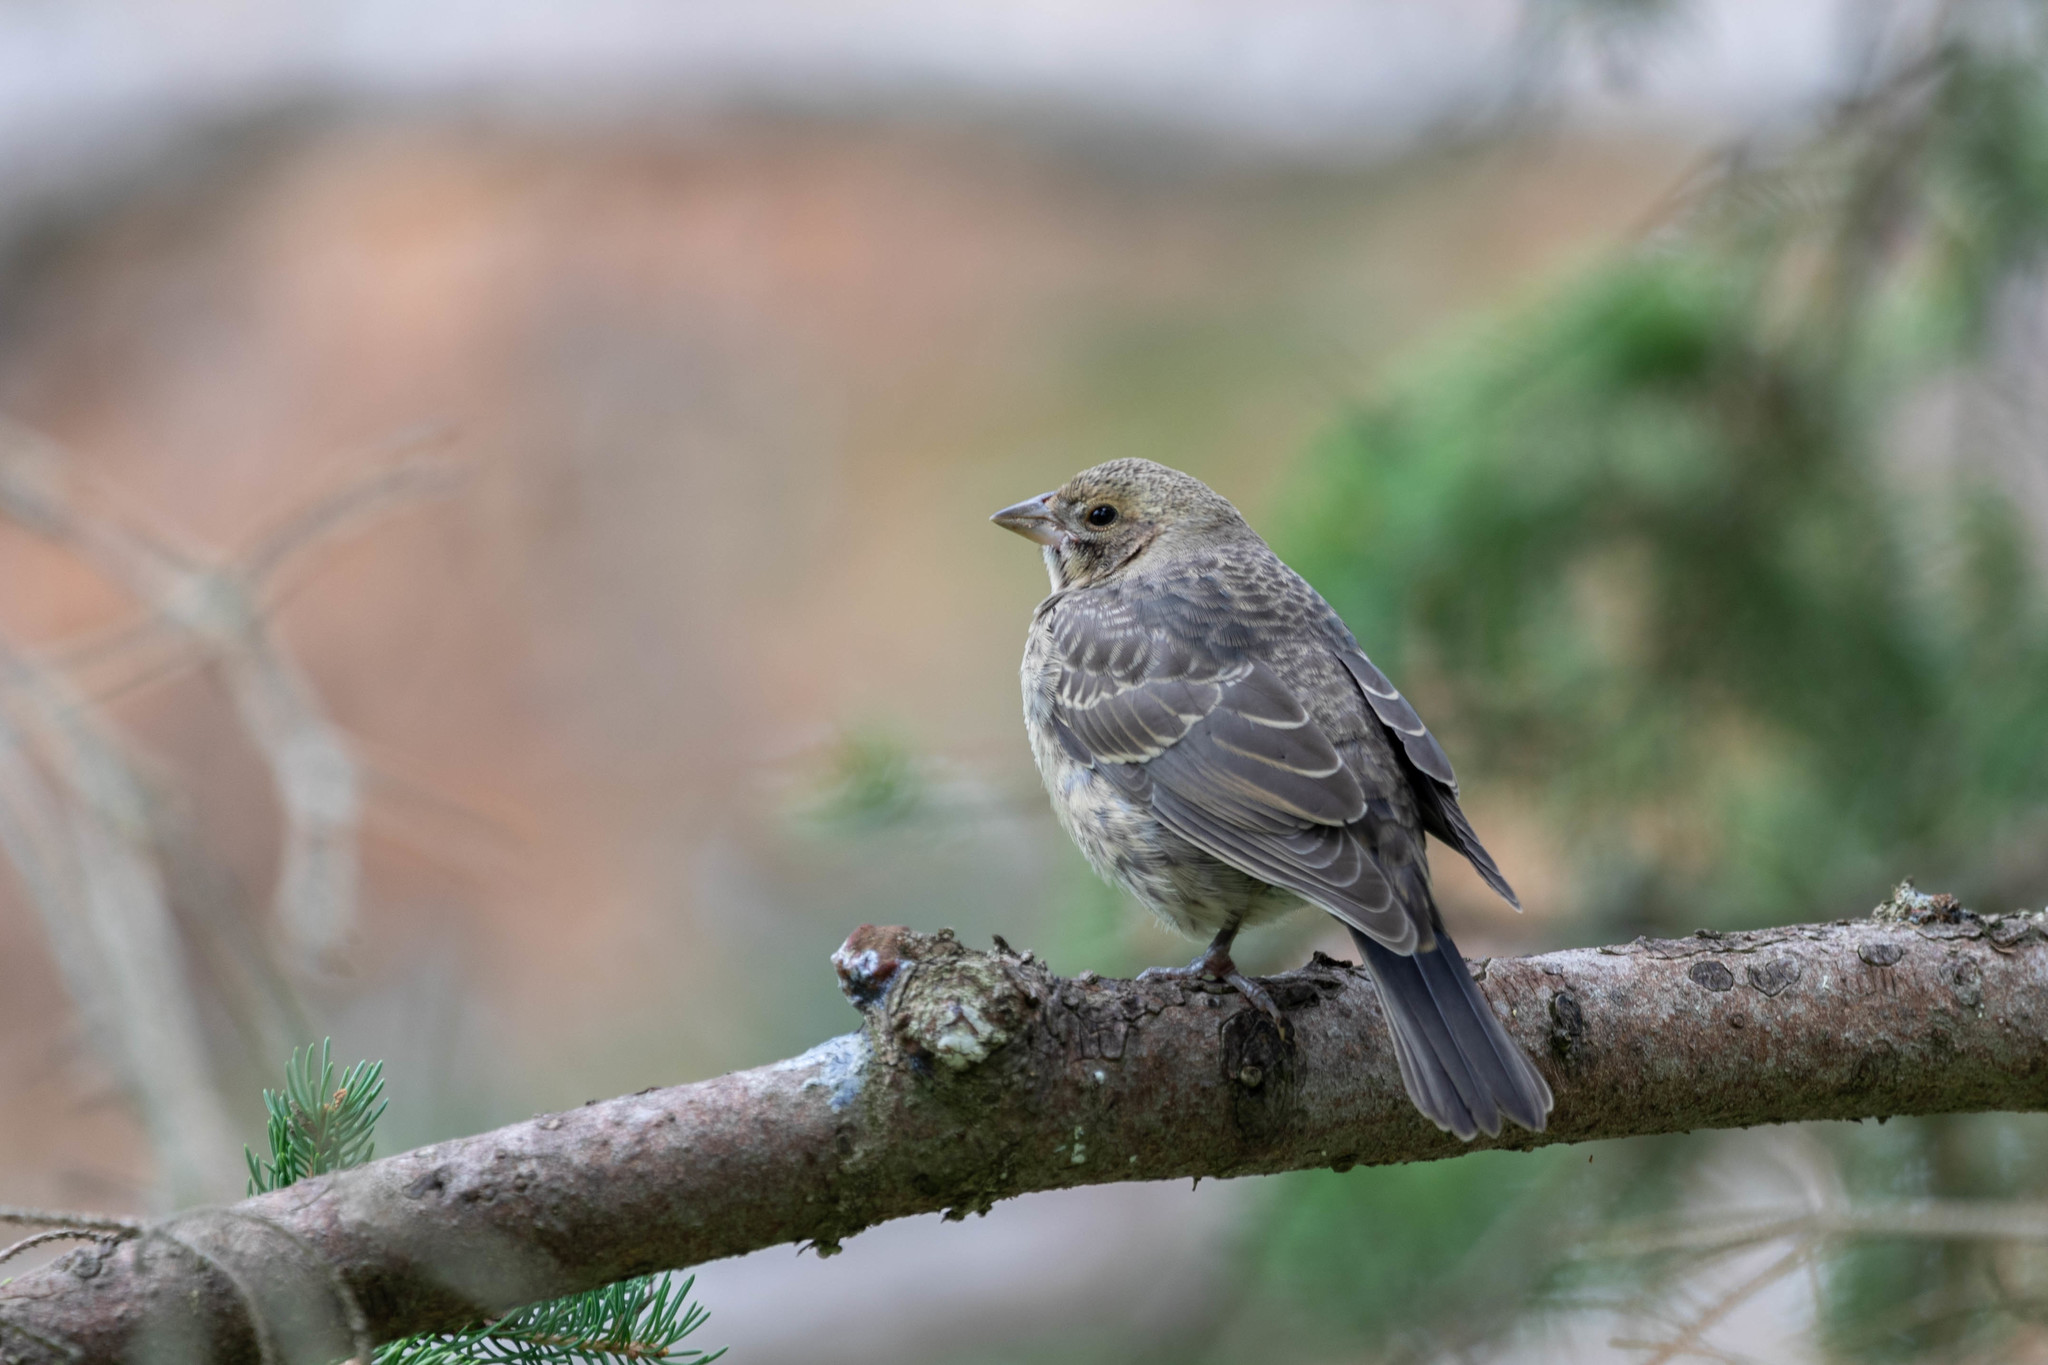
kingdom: Animalia
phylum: Chordata
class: Aves
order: Passeriformes
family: Icteridae
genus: Molothrus
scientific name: Molothrus ater
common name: Brown-headed cowbird
